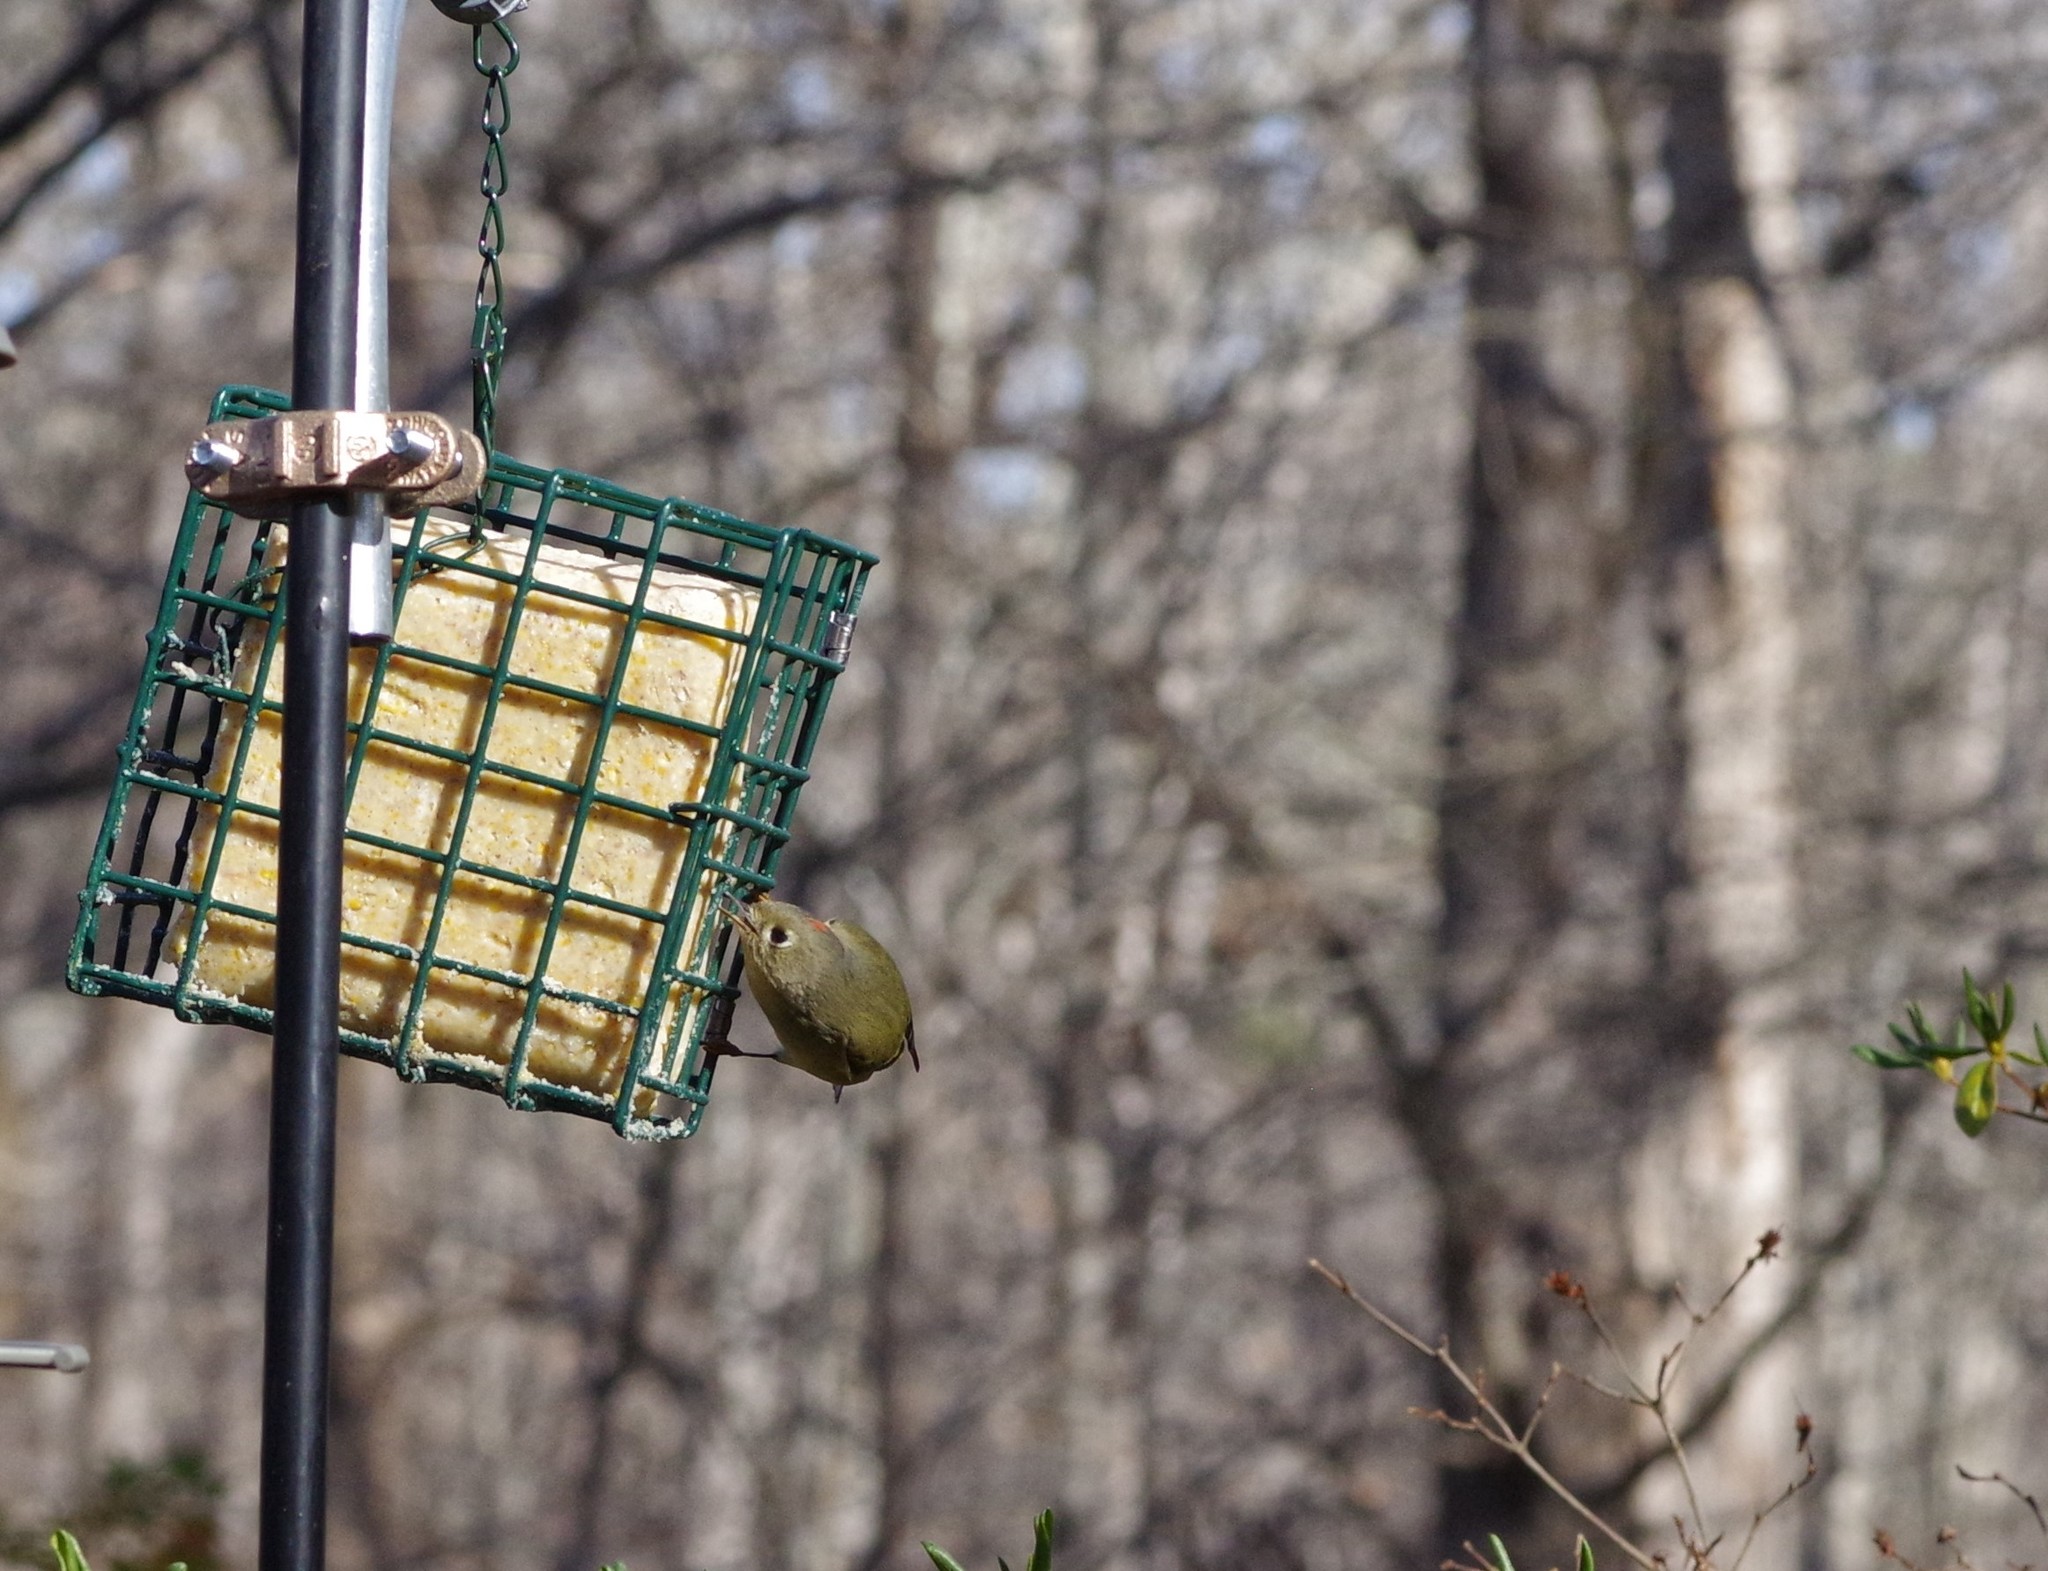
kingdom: Animalia
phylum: Chordata
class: Aves
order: Passeriformes
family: Regulidae
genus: Regulus
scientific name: Regulus calendula
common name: Ruby-crowned kinglet
